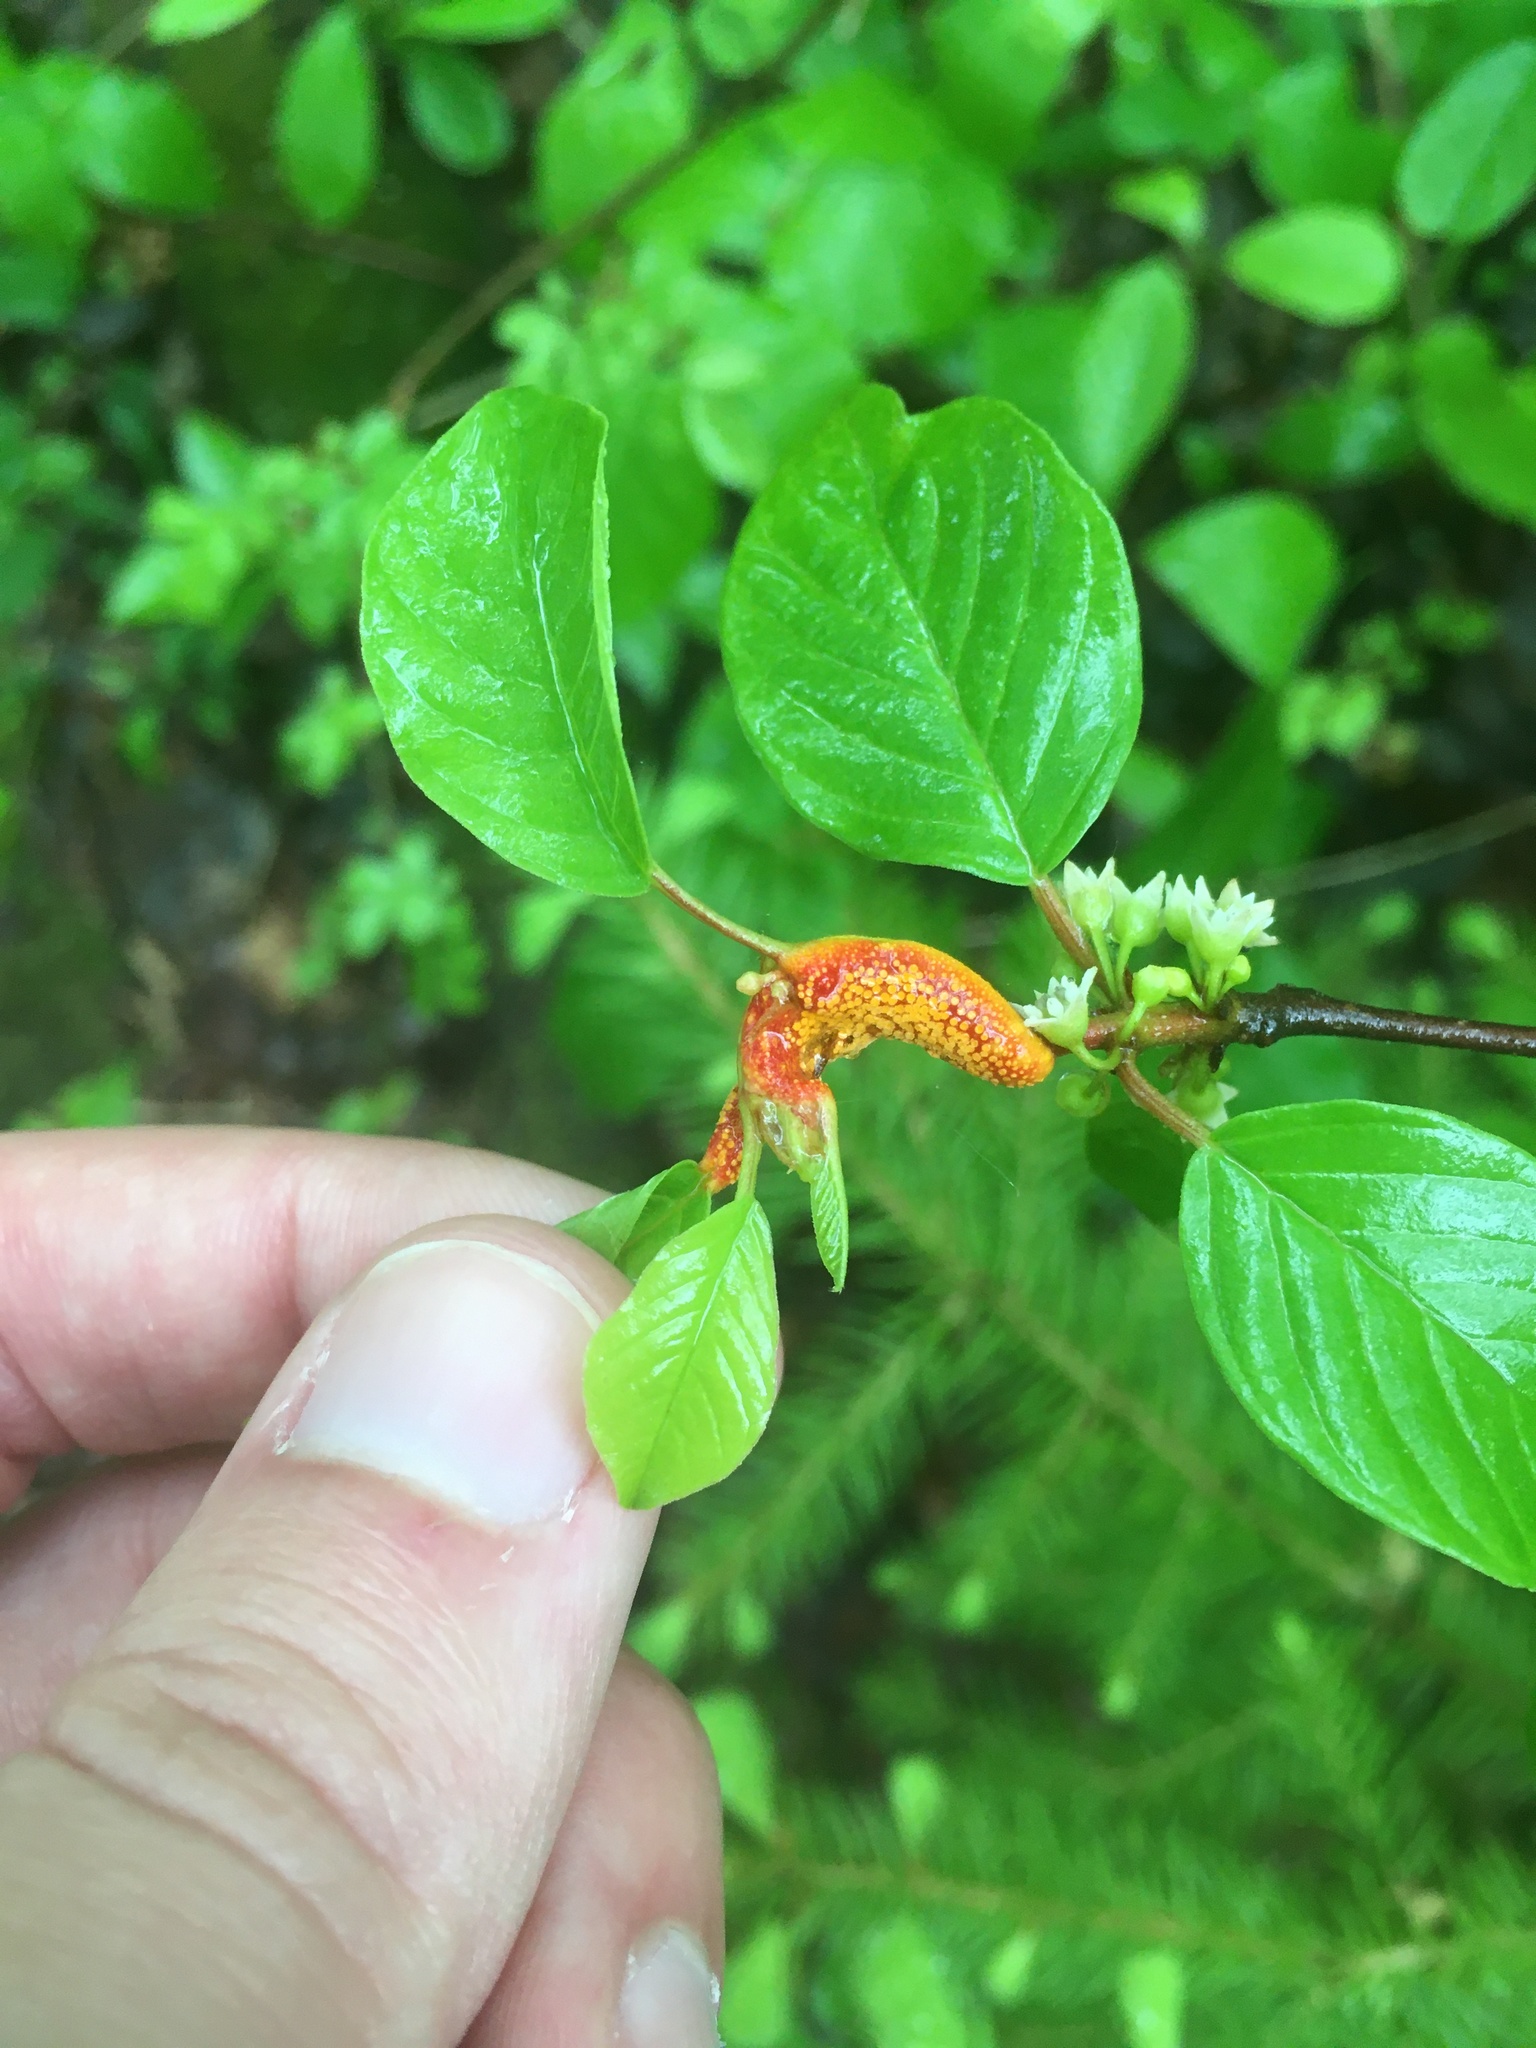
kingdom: Fungi
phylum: Basidiomycota
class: Pucciniomycetes
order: Pucciniales
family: Pucciniaceae
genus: Puccinia
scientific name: Puccinia coronata
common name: Crown rust
